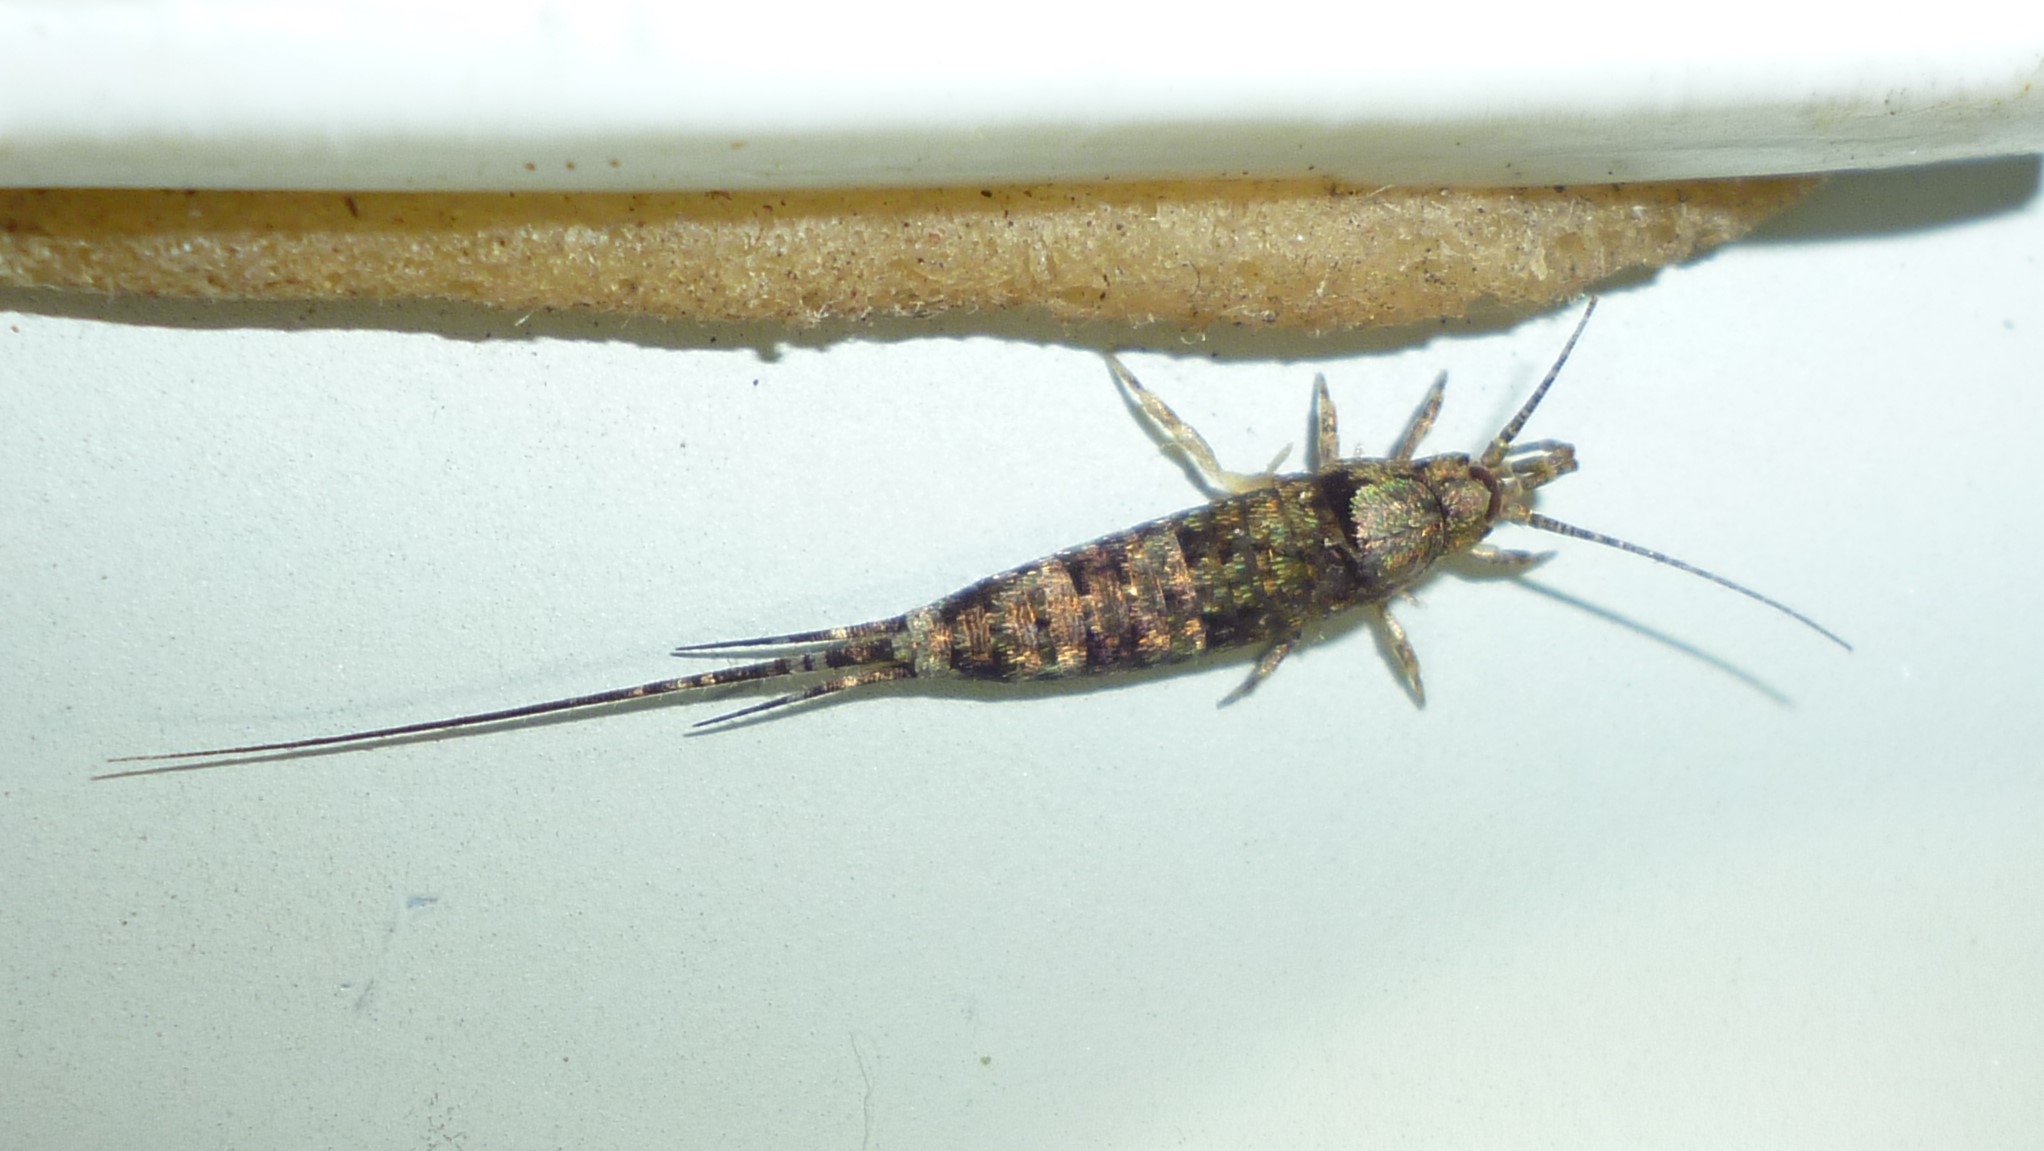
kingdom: Animalia
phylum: Arthropoda
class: Insecta
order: Archaeognatha
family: Machilidae
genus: Trigoniophthalmus
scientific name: Trigoniophthalmus alternatus
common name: Jumping bristletail
